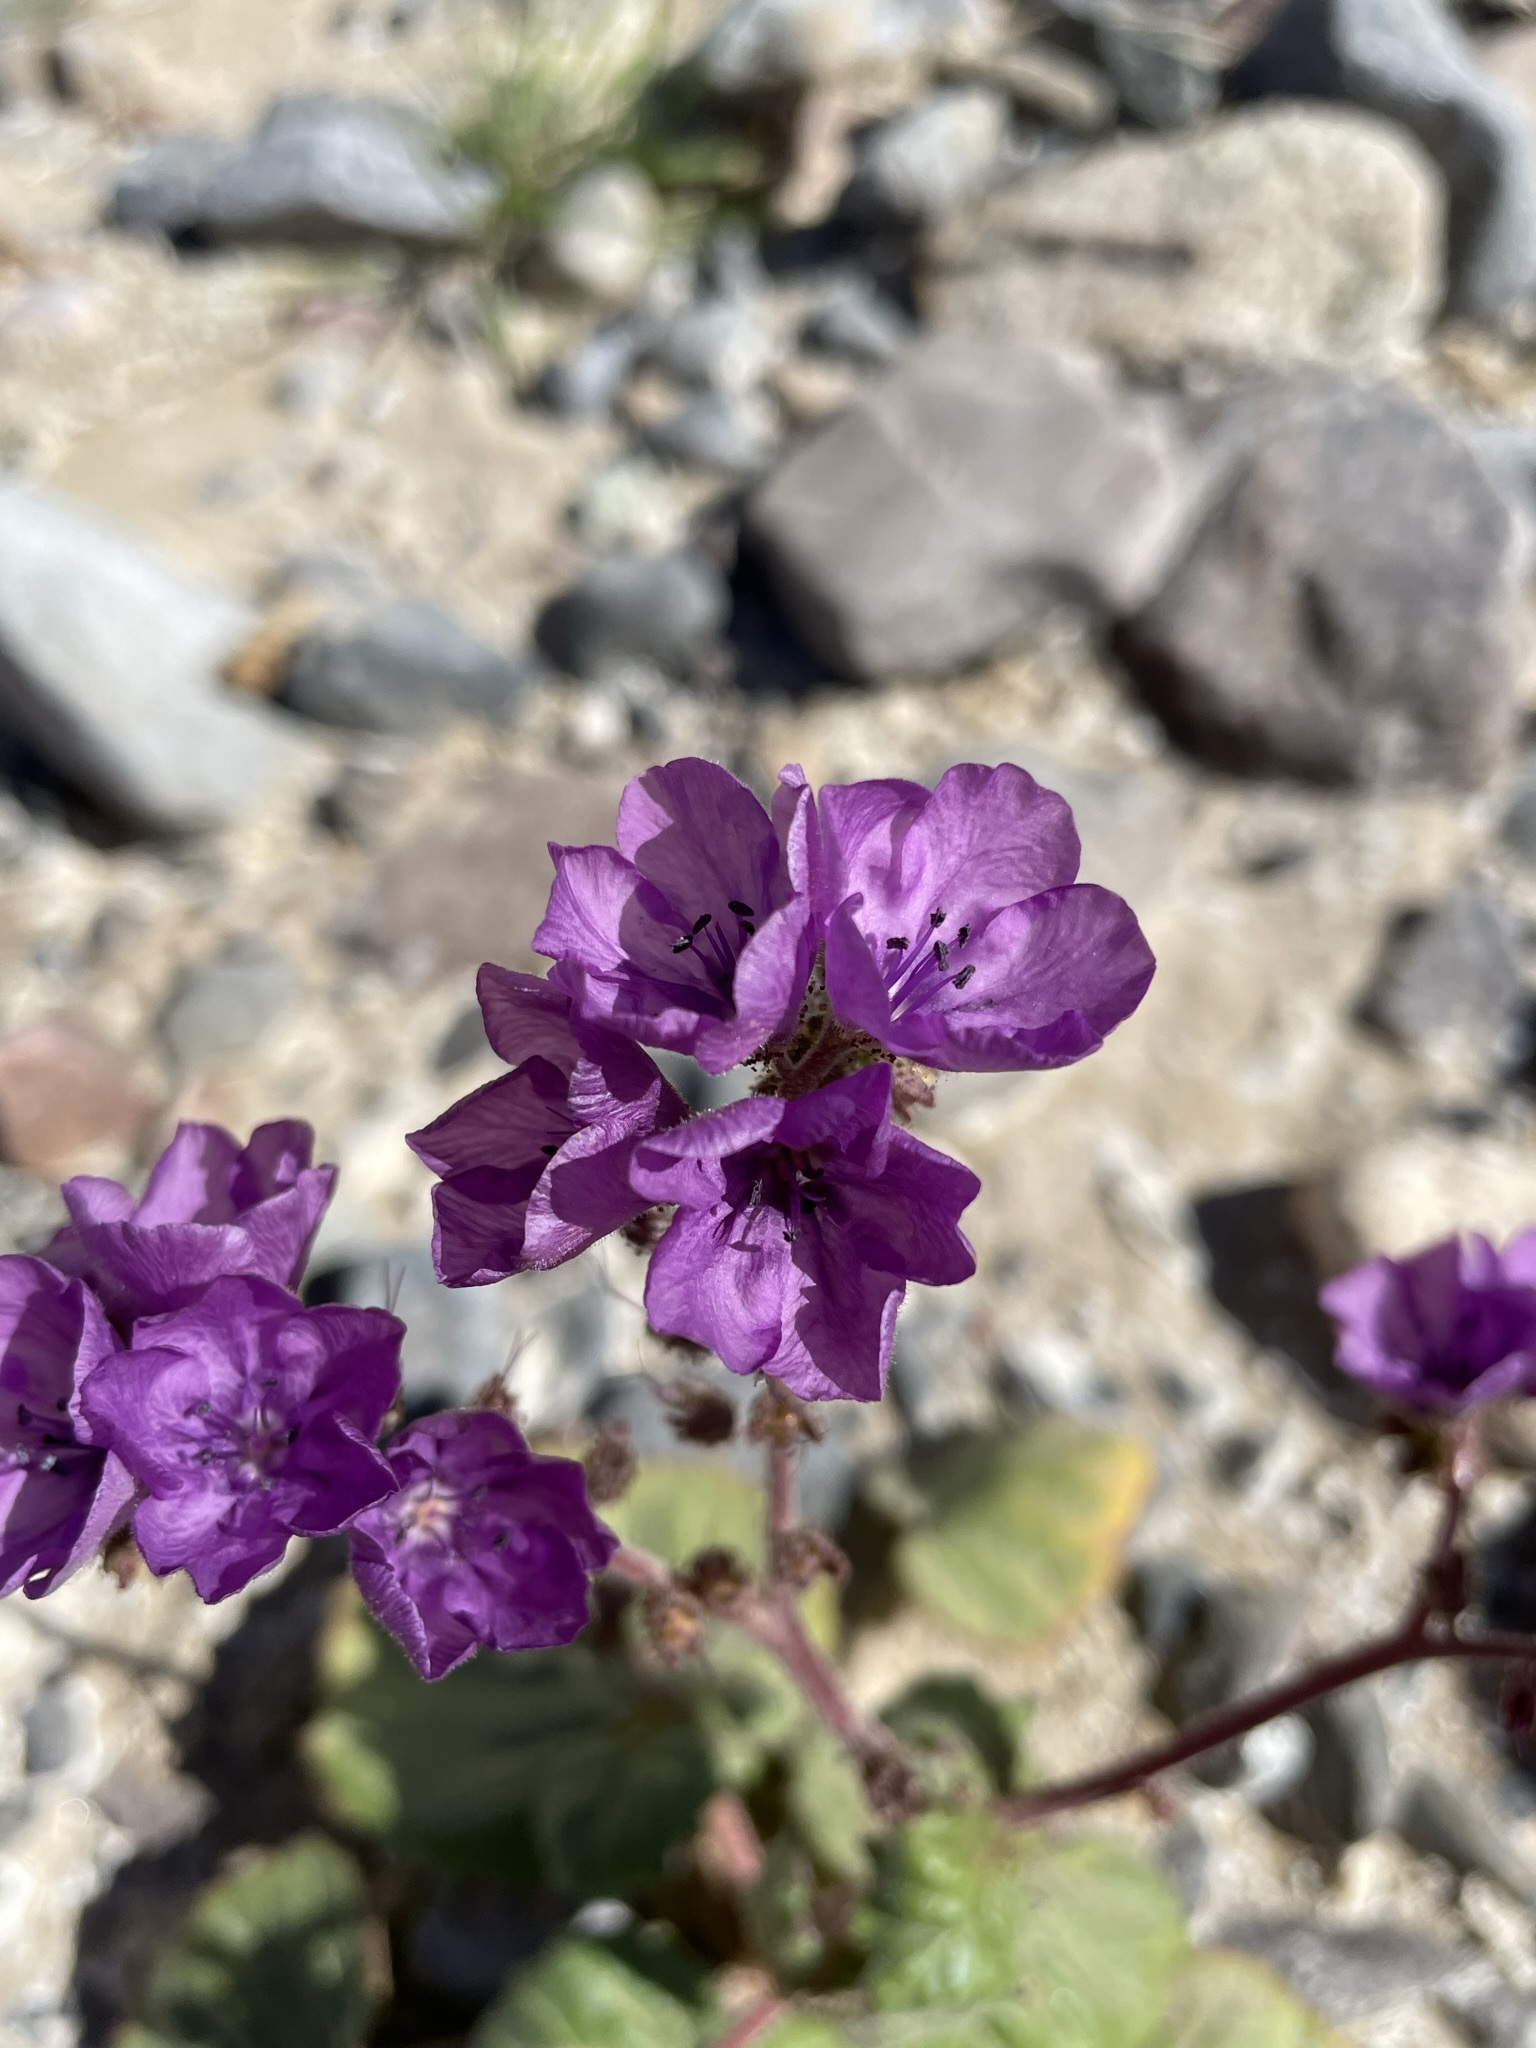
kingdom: Plantae
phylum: Tracheophyta
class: Magnoliopsida
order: Boraginales
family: Hydrophyllaceae
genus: Phacelia
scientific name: Phacelia calthifolia
